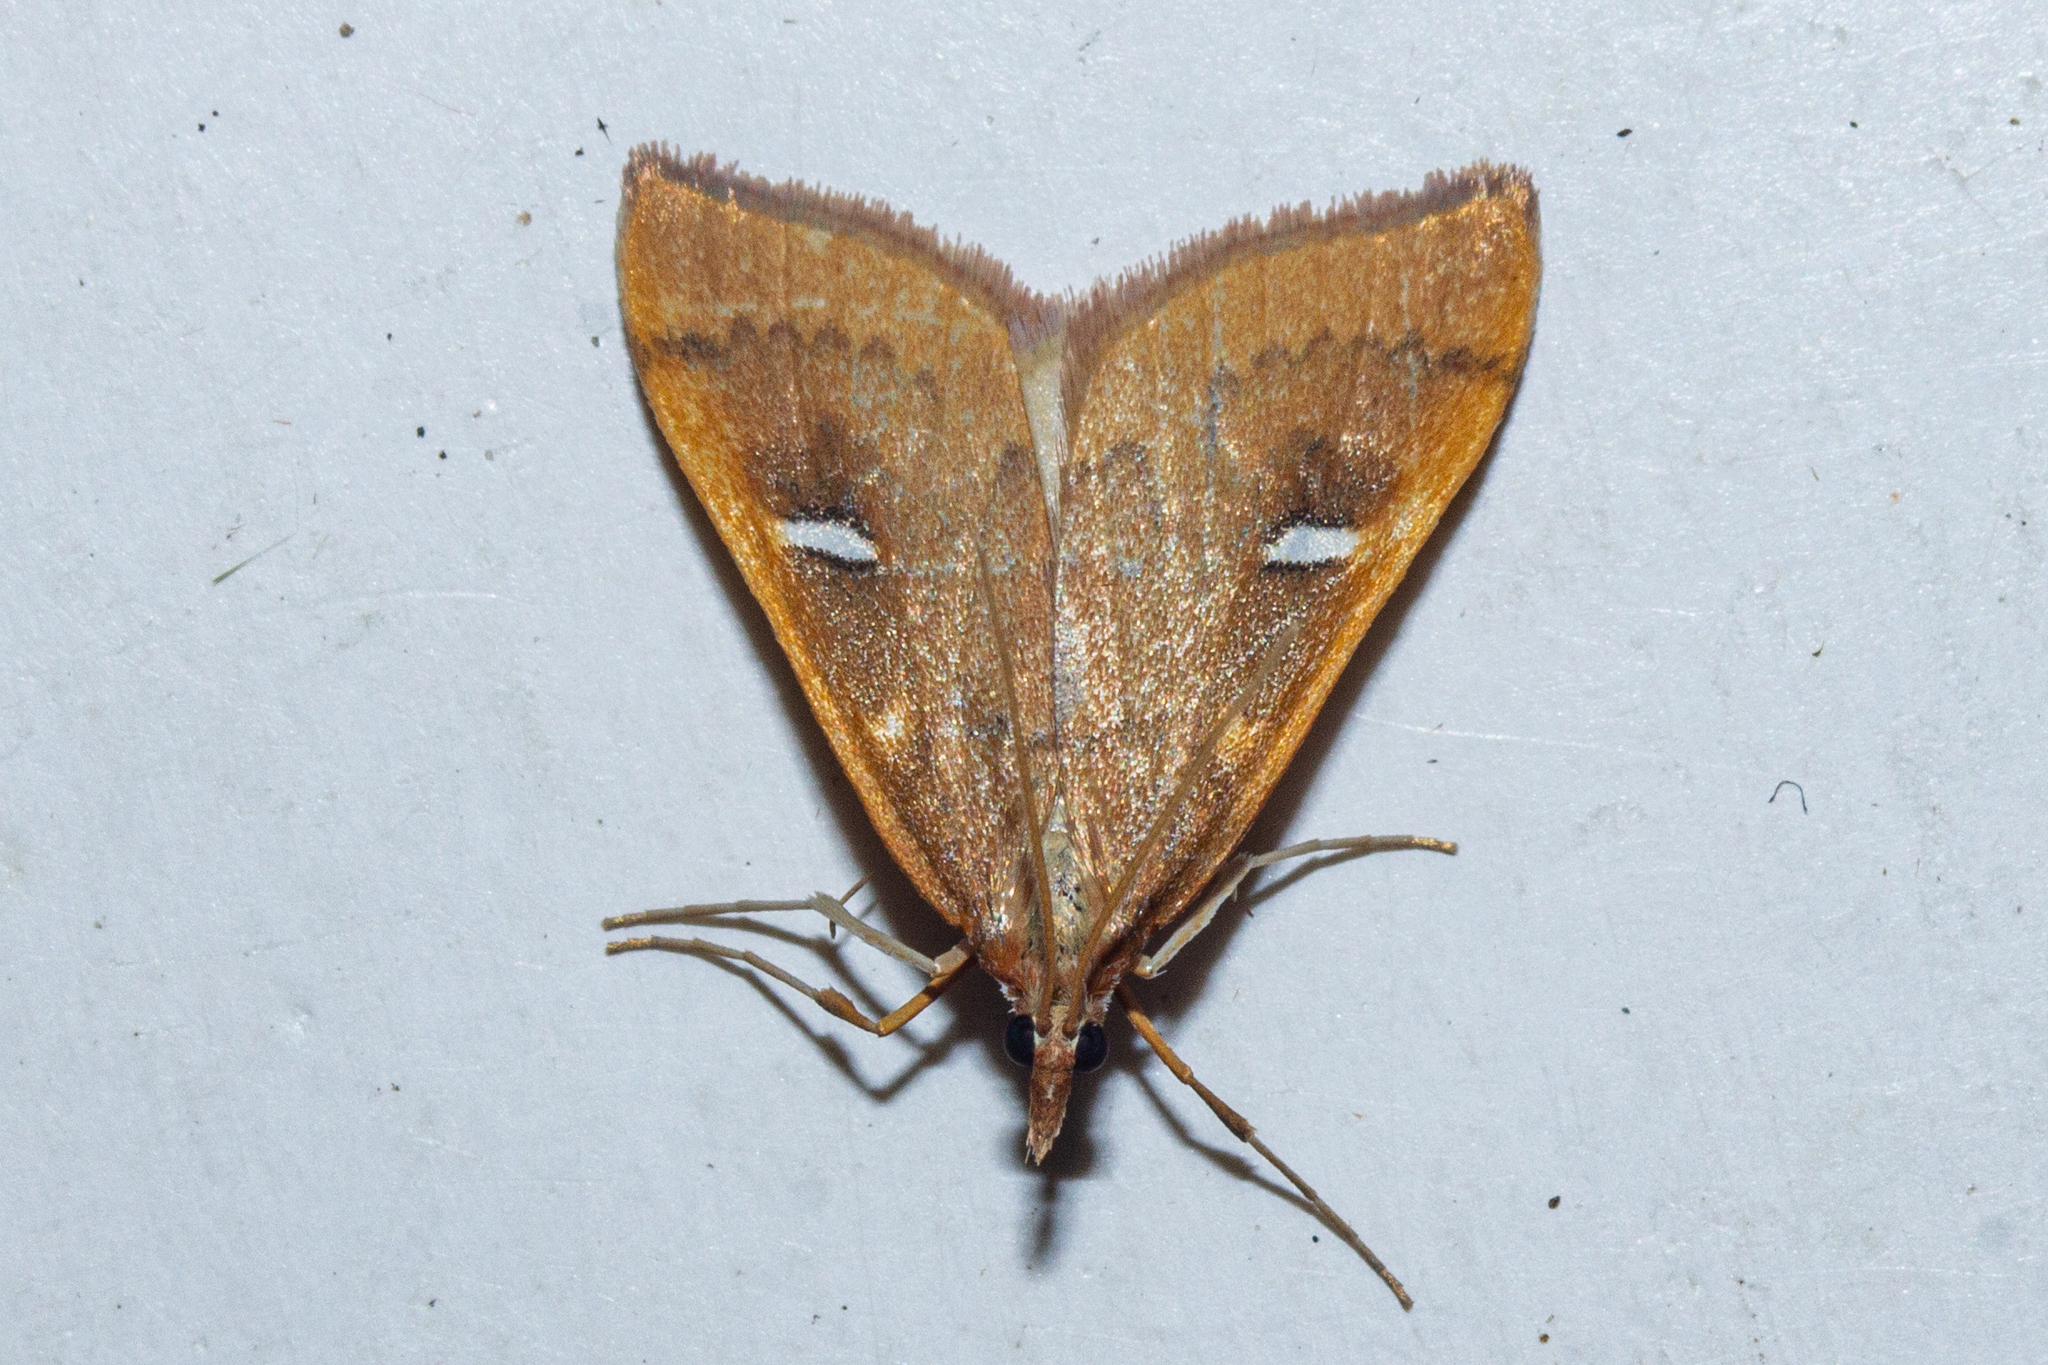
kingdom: Animalia
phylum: Arthropoda
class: Insecta
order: Lepidoptera
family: Crambidae
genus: Udea
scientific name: Udea notata
